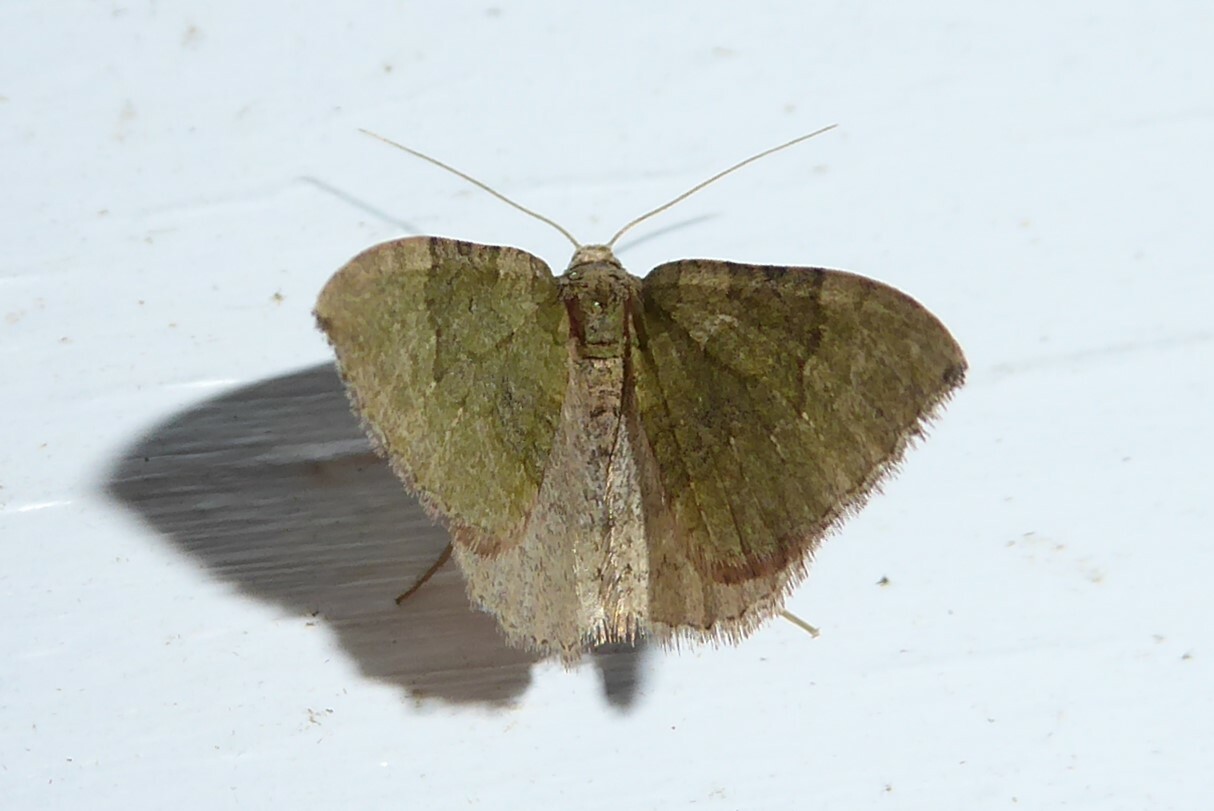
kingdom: Animalia
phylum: Arthropoda
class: Insecta
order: Lepidoptera
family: Geometridae
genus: Epyaxa
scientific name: Epyaxa rosearia
